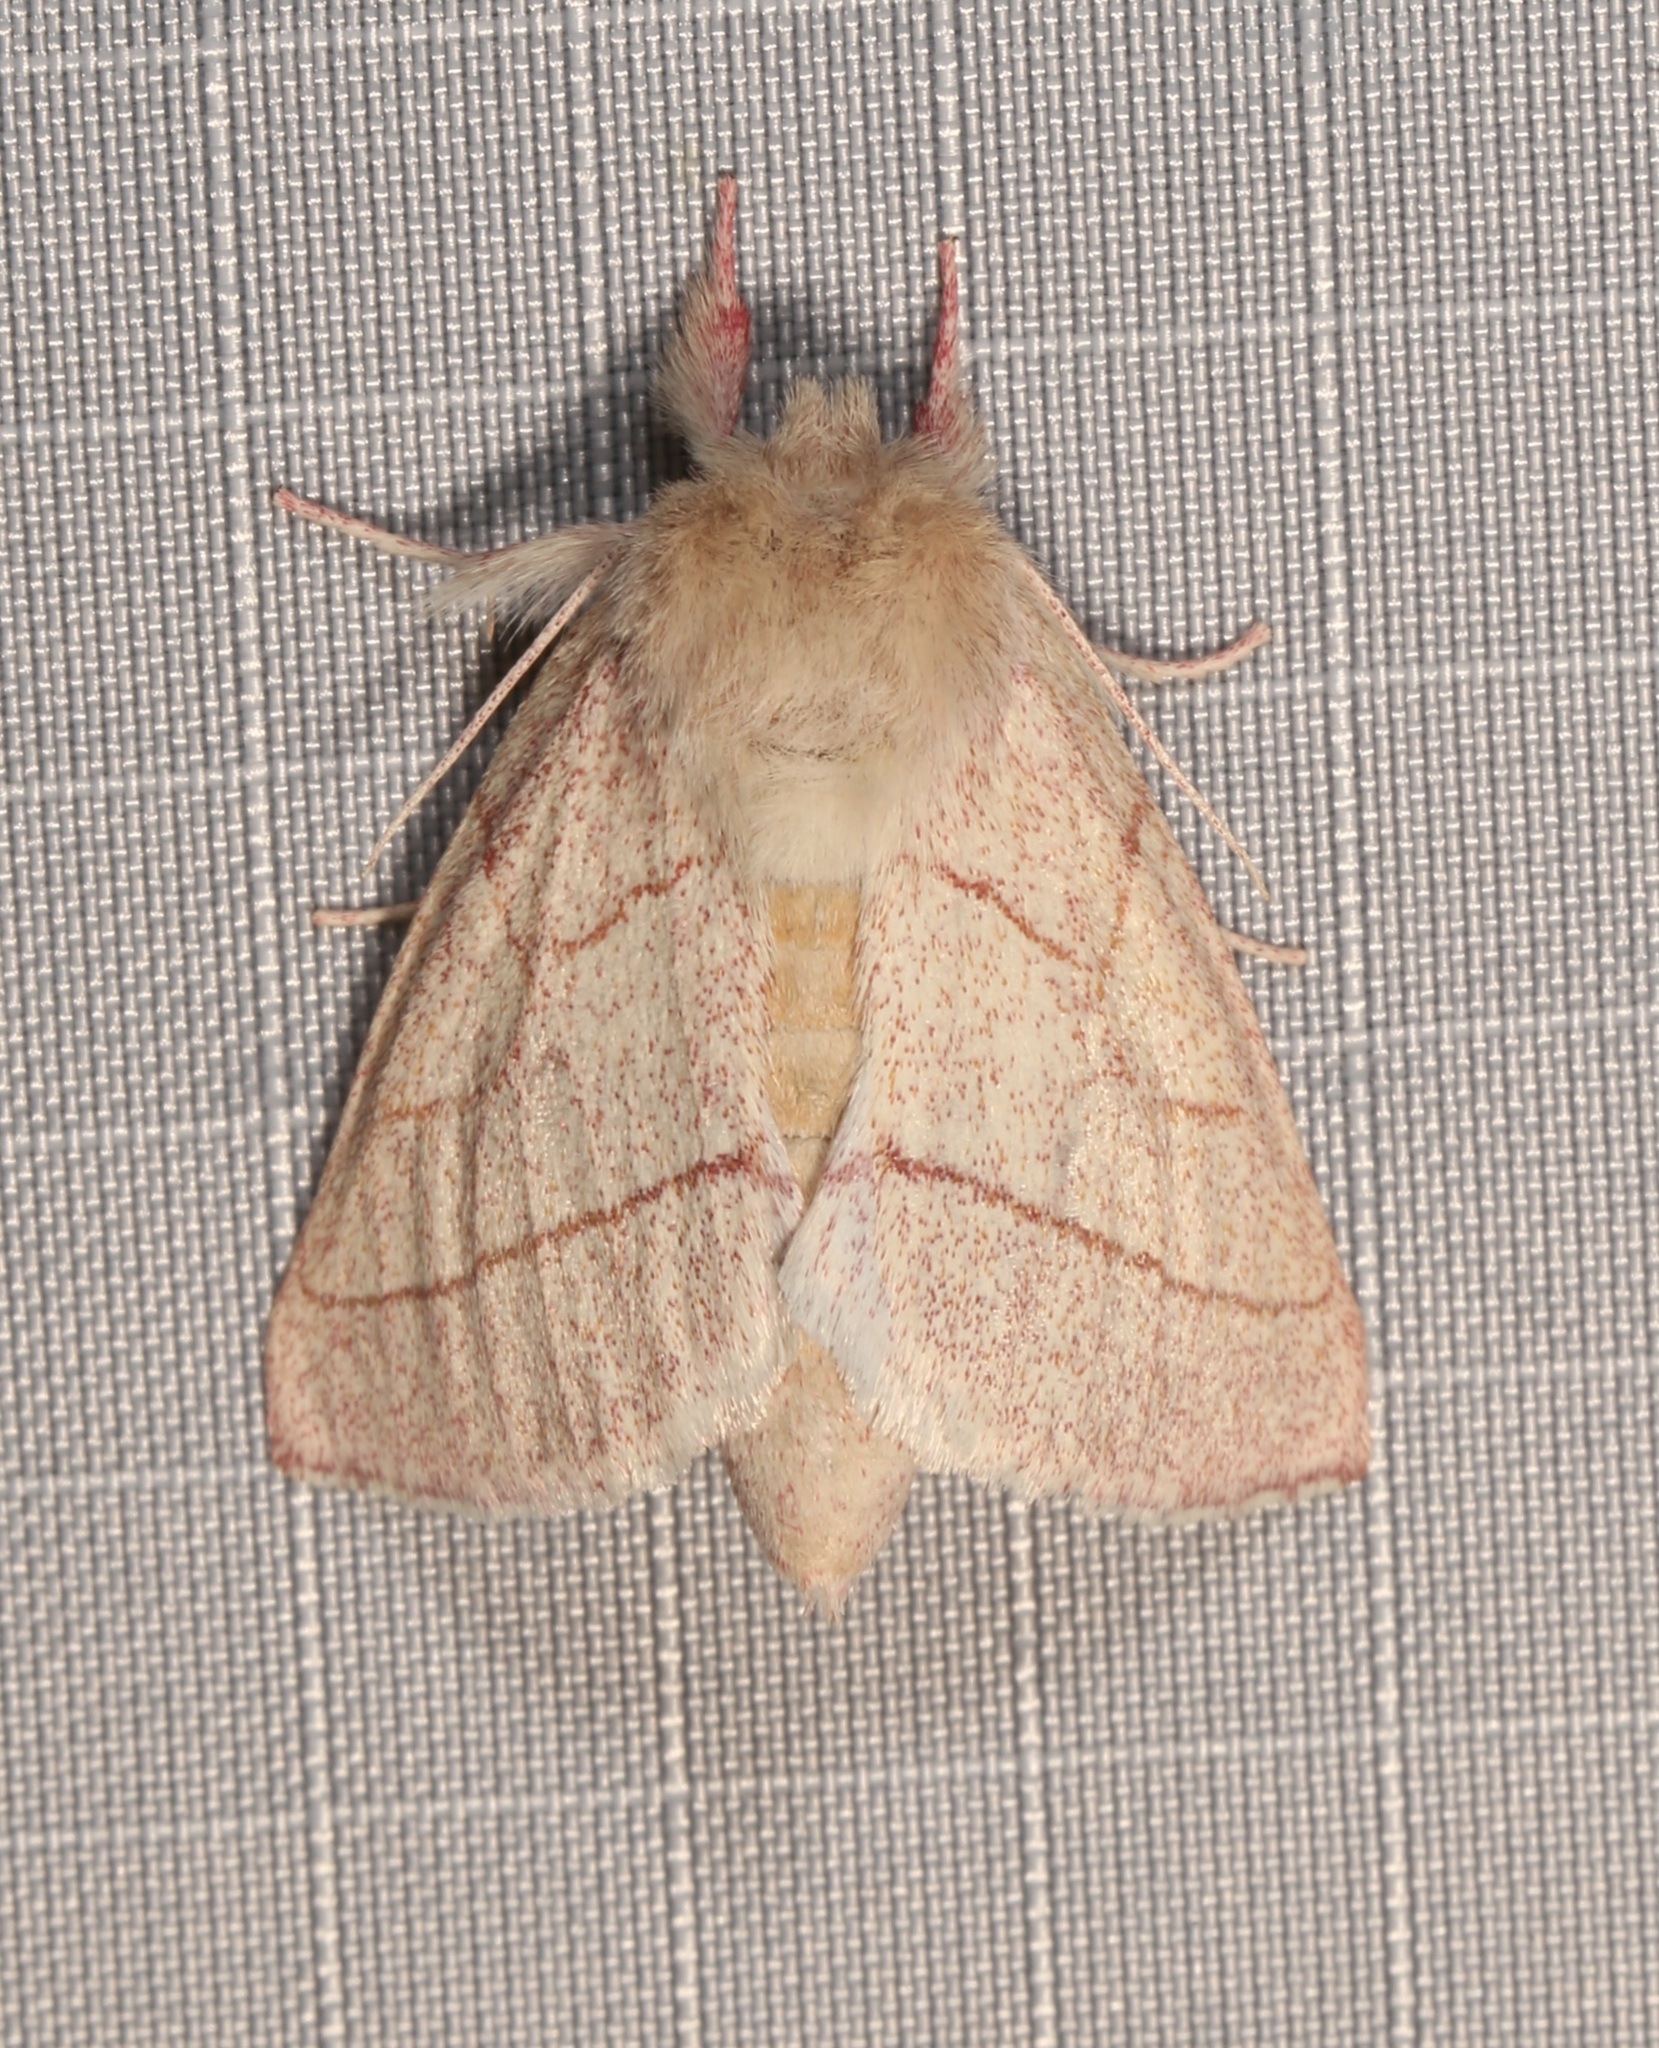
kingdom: Animalia
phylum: Arthropoda
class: Insecta
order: Lepidoptera
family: Notodontidae
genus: Hyparpax
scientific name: Hyparpax aurostriata
